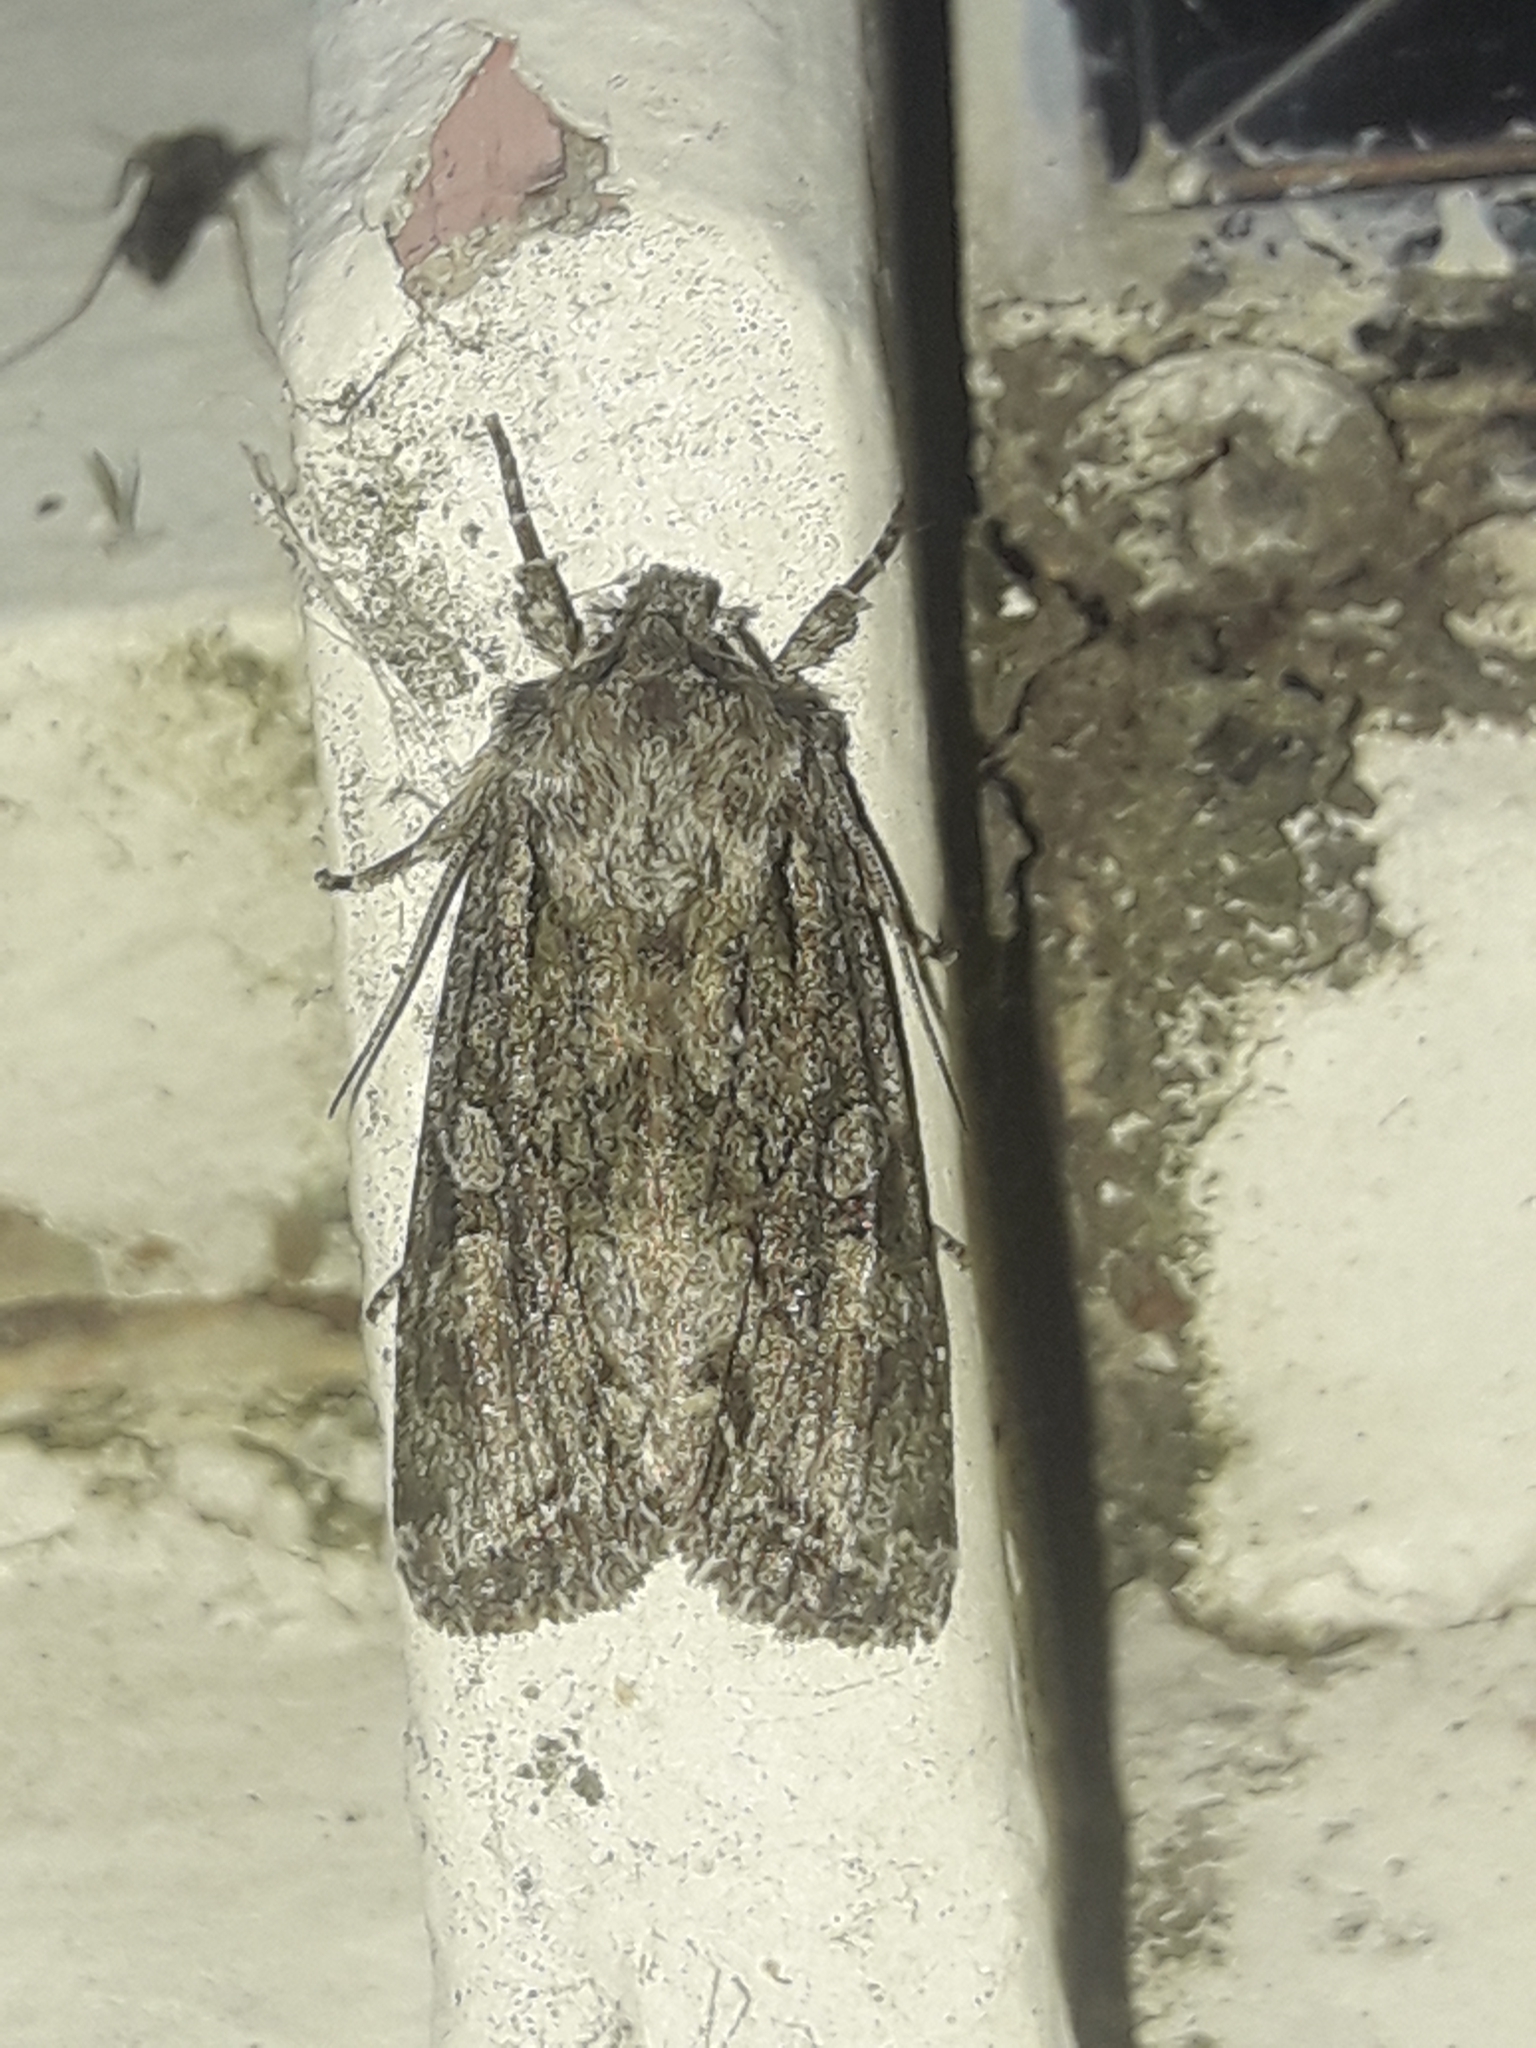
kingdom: Animalia
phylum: Arthropoda
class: Insecta
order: Lepidoptera
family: Noctuidae
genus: Ichneutica
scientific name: Ichneutica mutans
